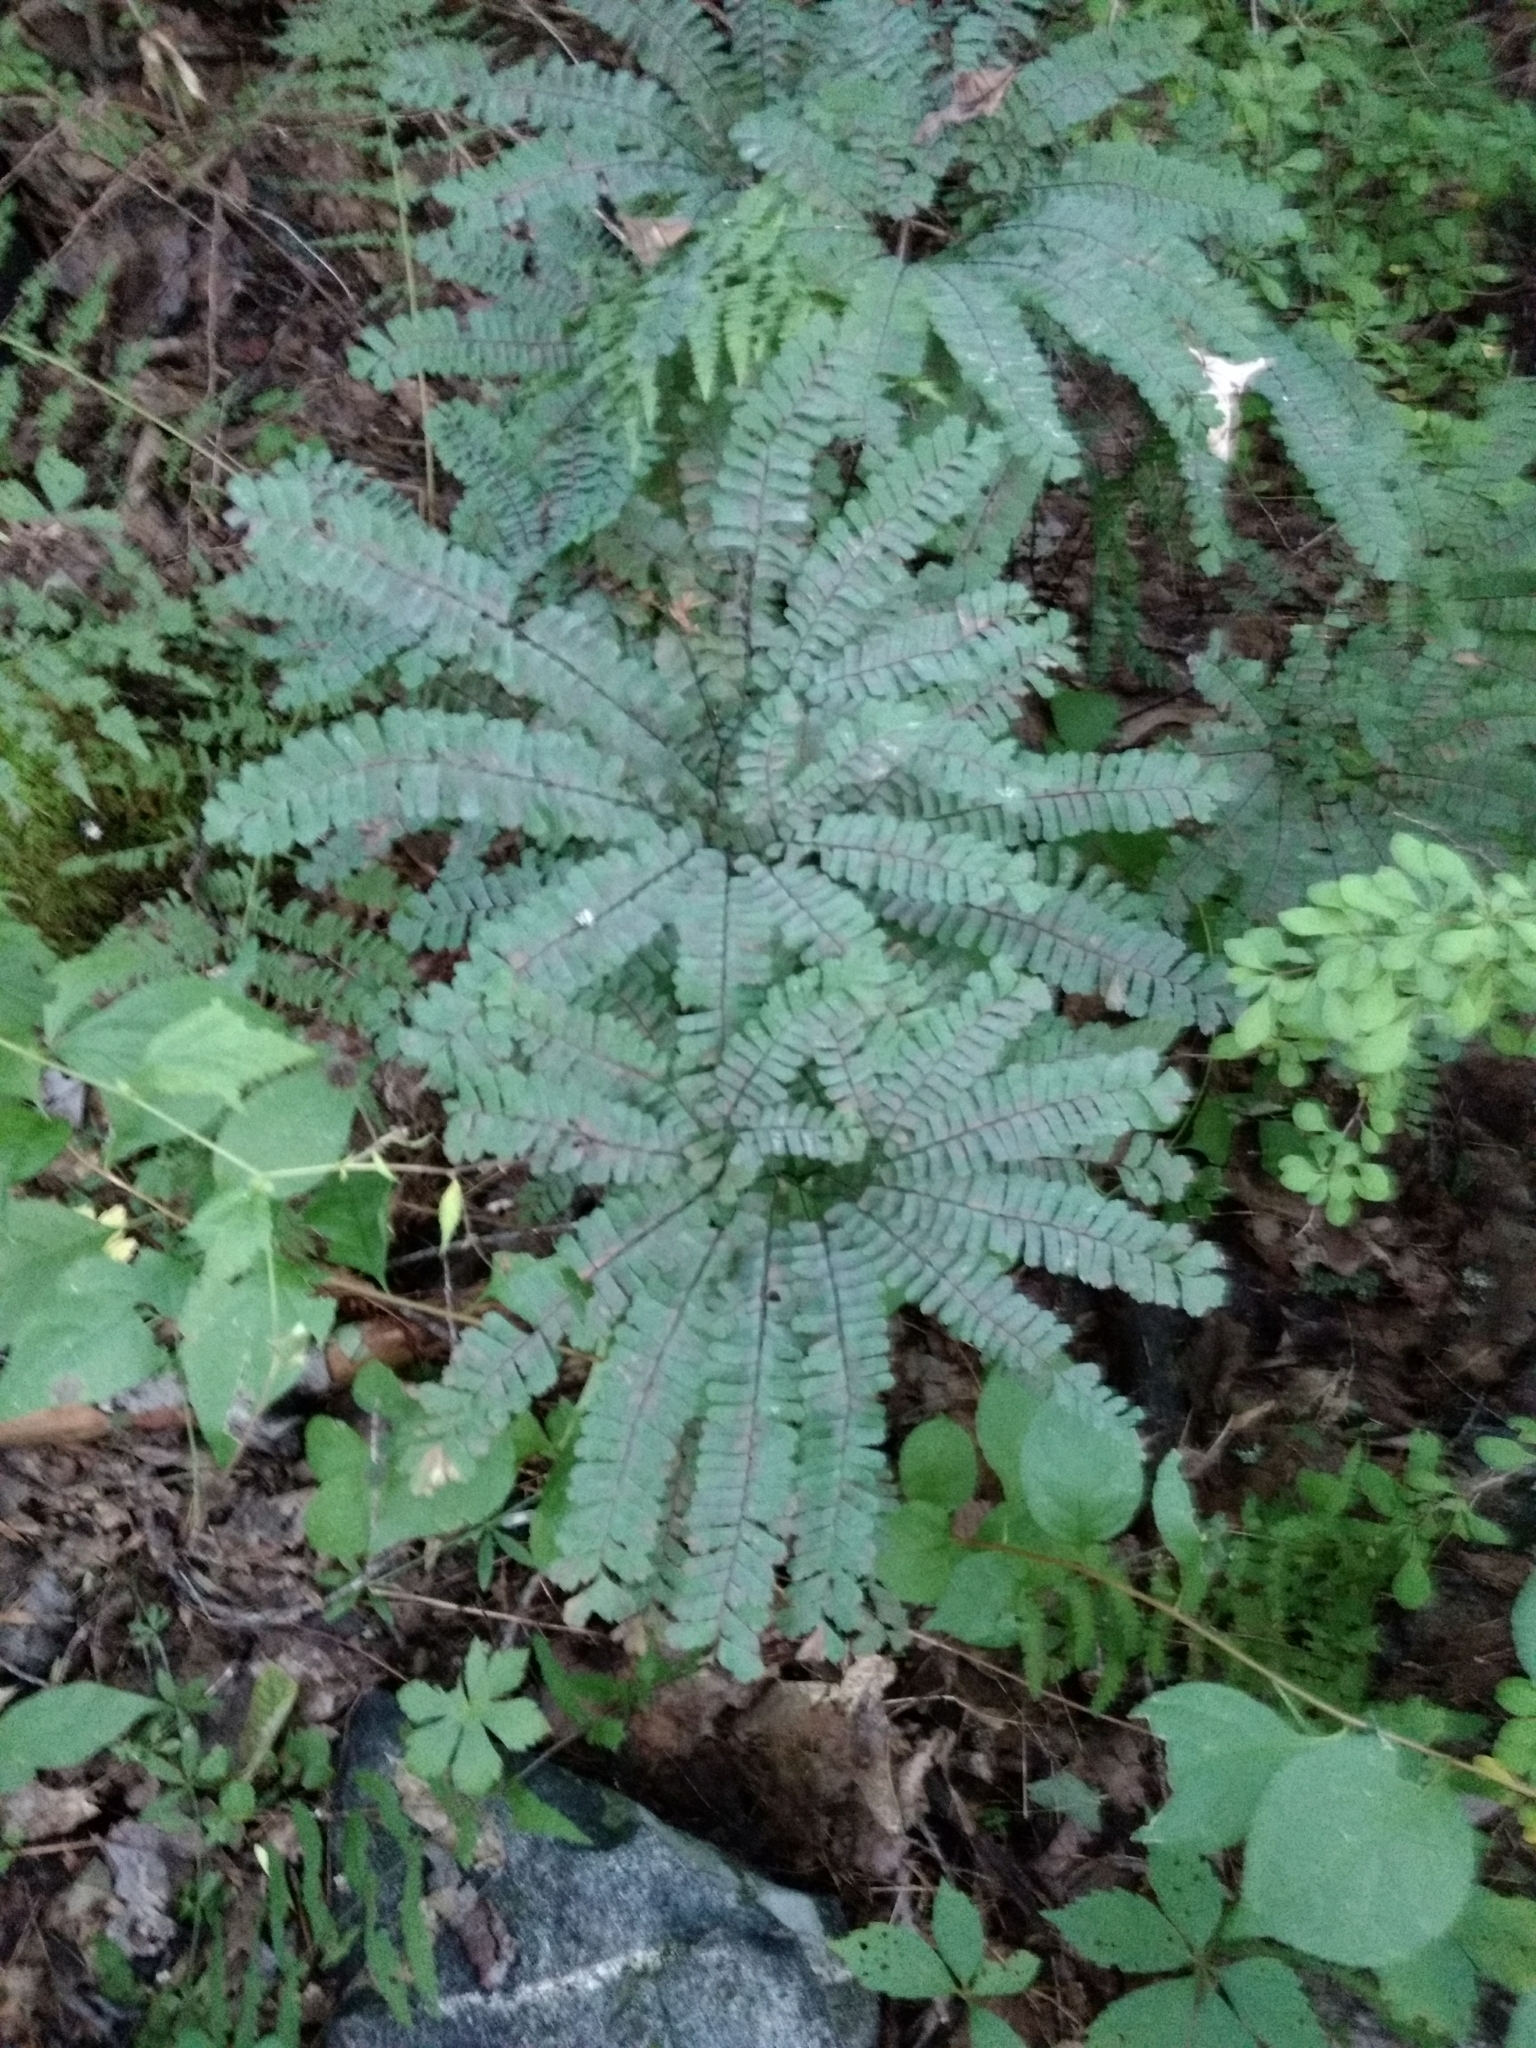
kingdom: Plantae
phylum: Tracheophyta
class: Polypodiopsida
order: Polypodiales
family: Pteridaceae
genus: Adiantum
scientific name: Adiantum pedatum
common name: Five-finger fern
